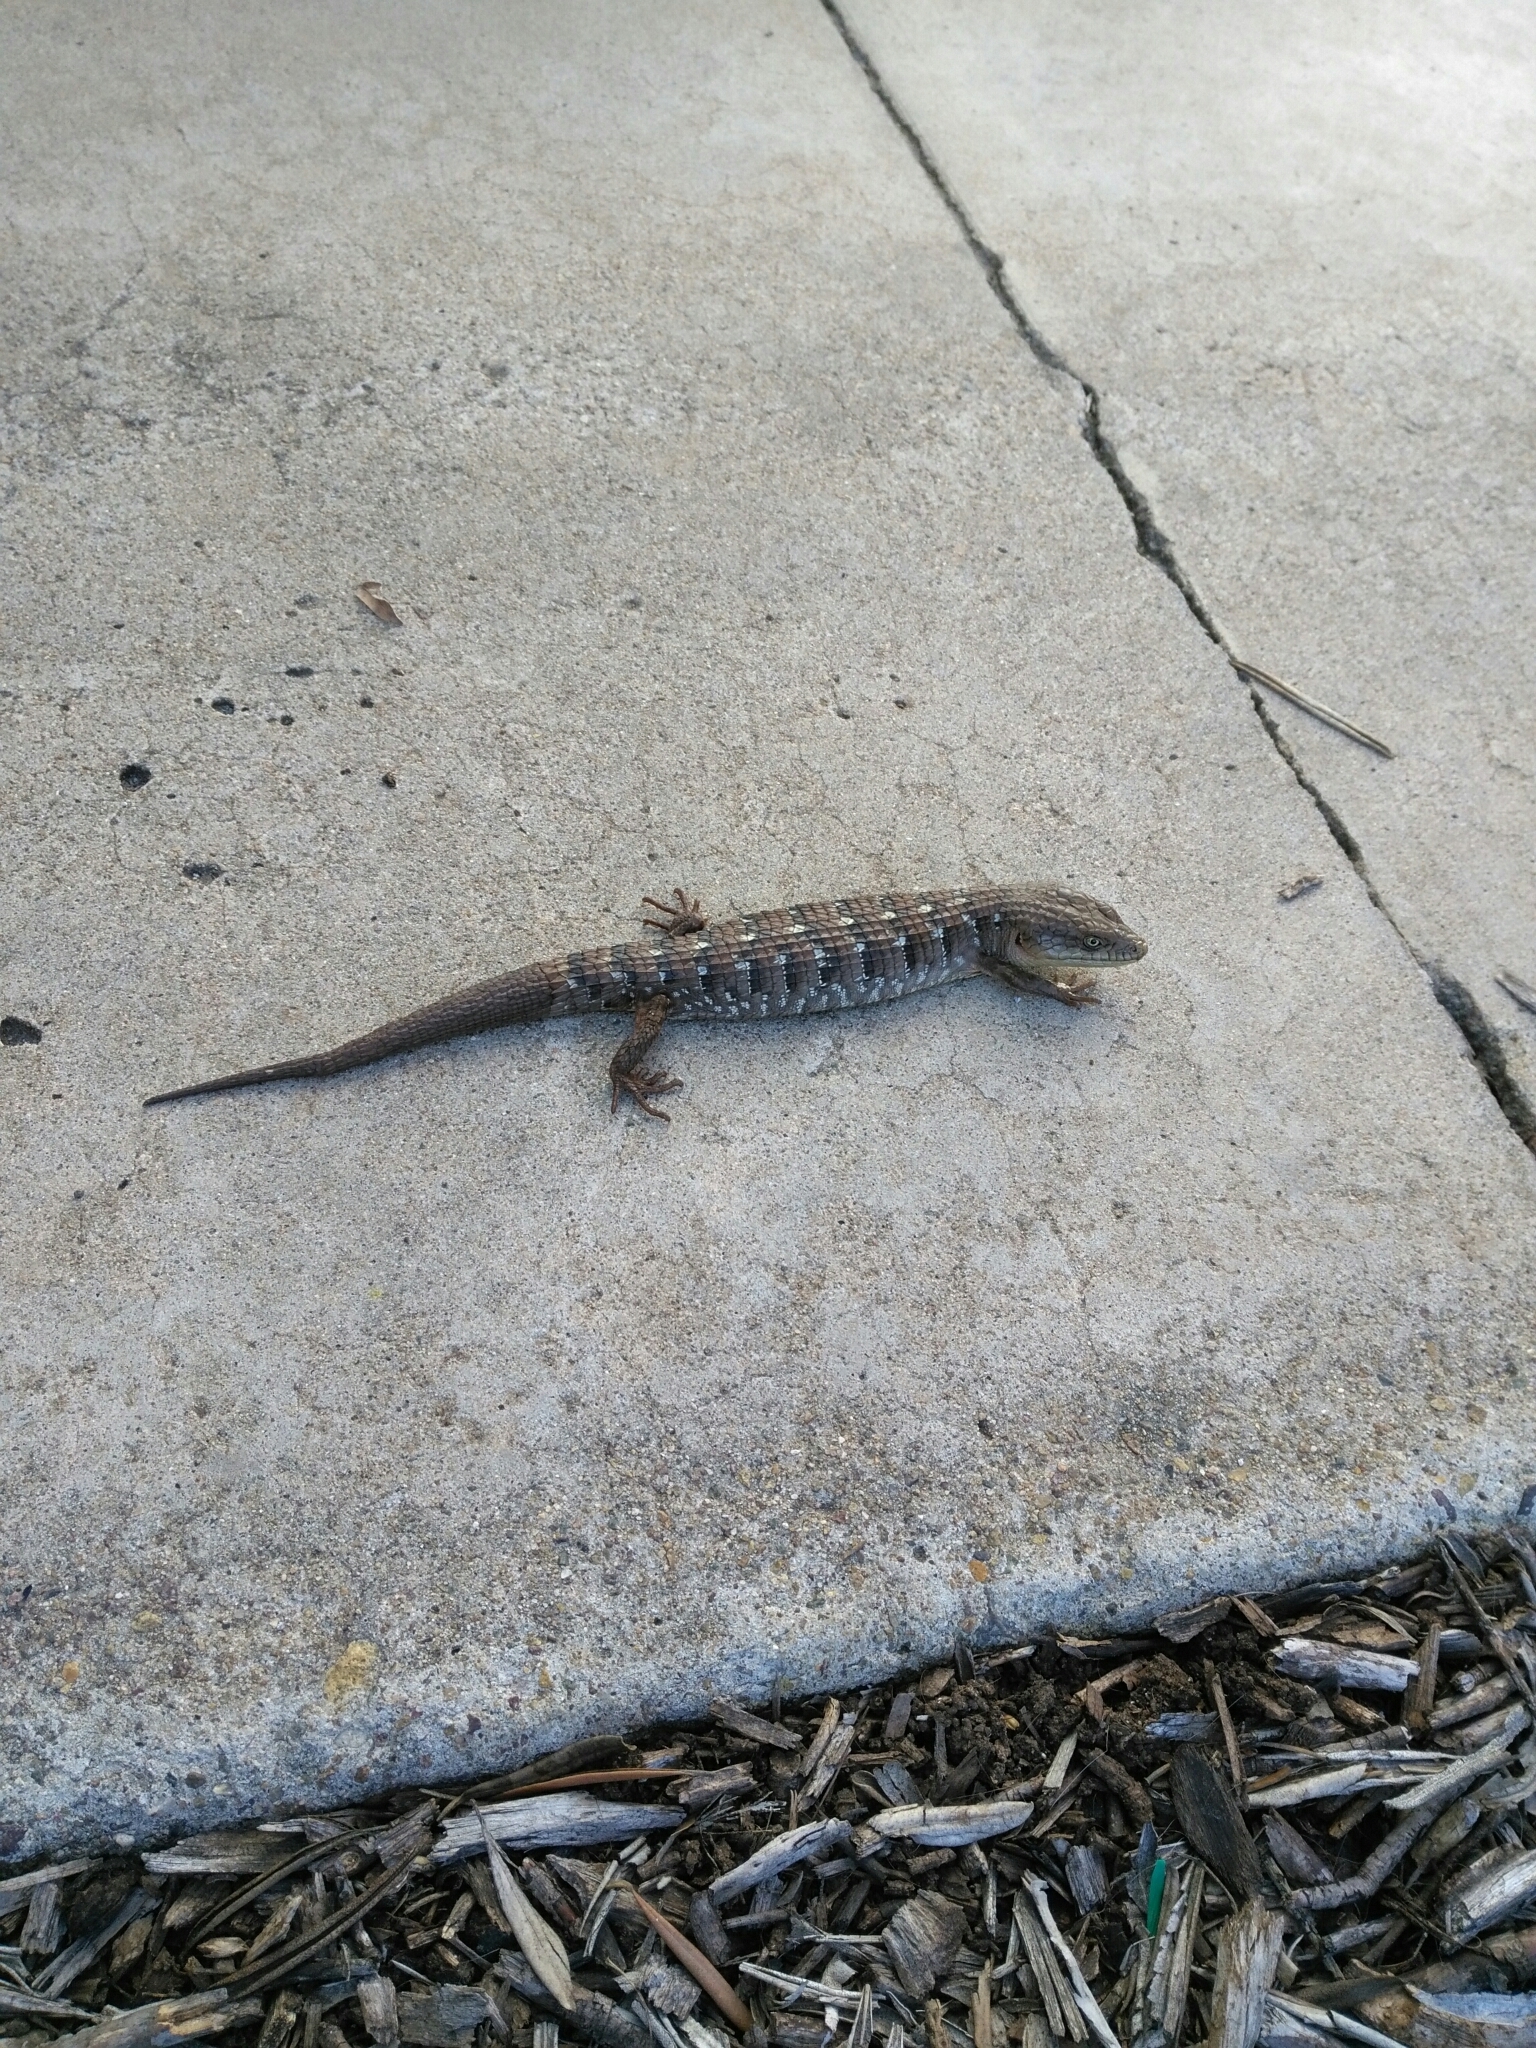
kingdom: Animalia
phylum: Chordata
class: Squamata
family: Anguidae
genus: Elgaria
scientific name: Elgaria multicarinata
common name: Southern alligator lizard
